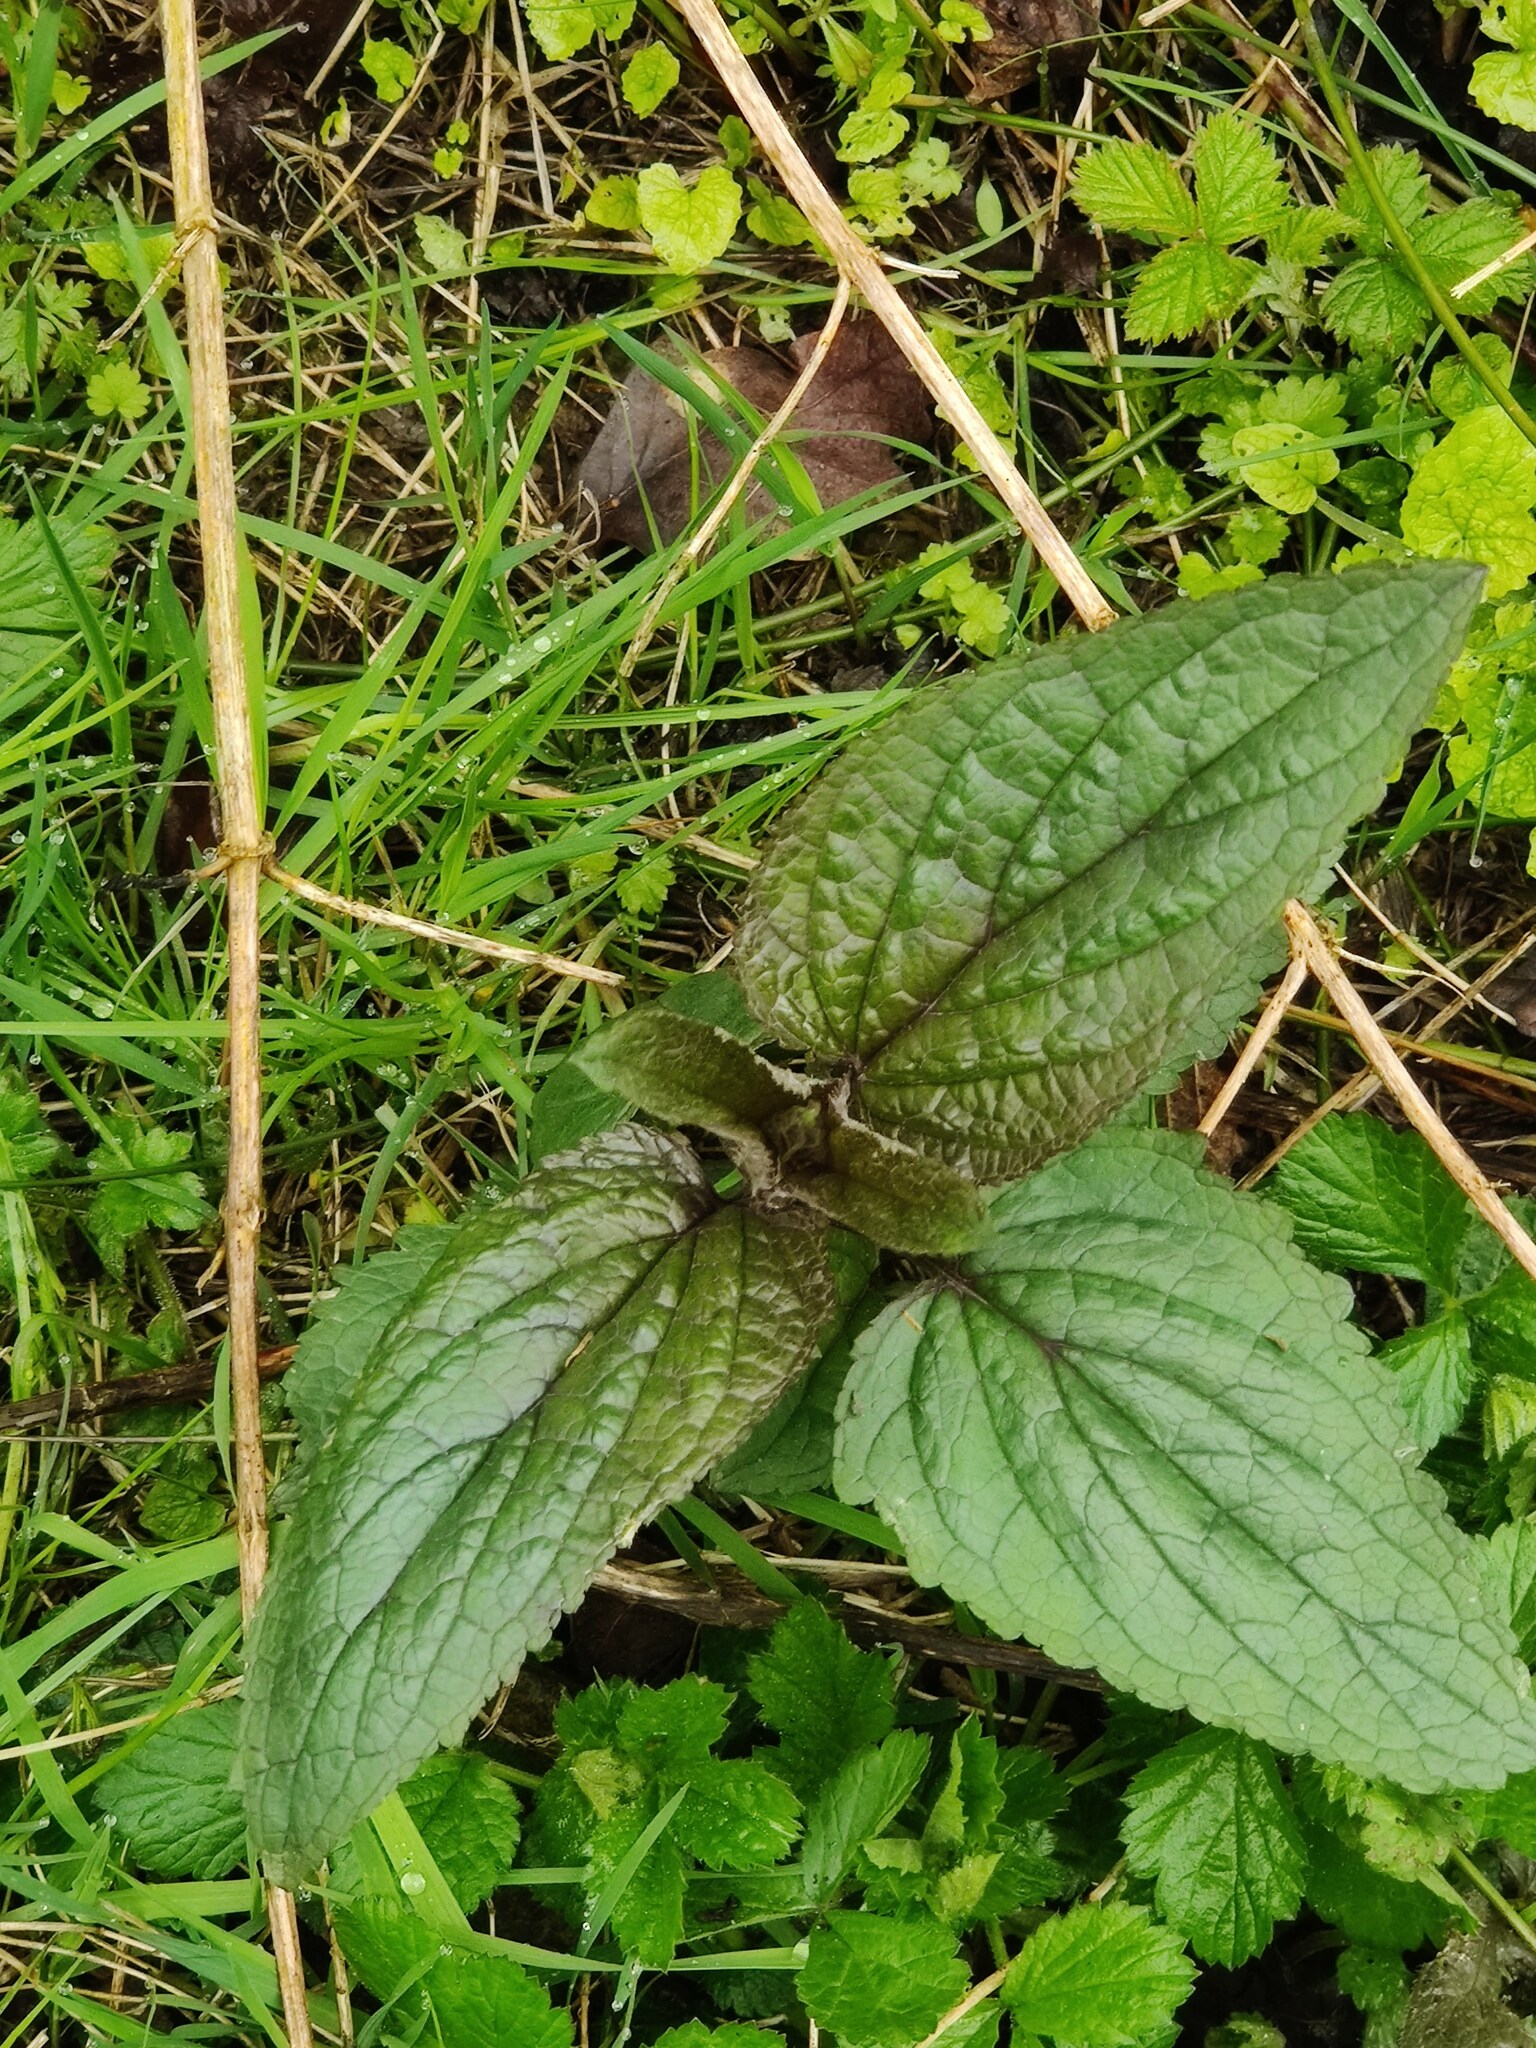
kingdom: Plantae
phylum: Tracheophyta
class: Magnoliopsida
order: Lamiales
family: Scrophulariaceae
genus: Scrophularia
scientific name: Scrophularia nodosa
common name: Common figwort
